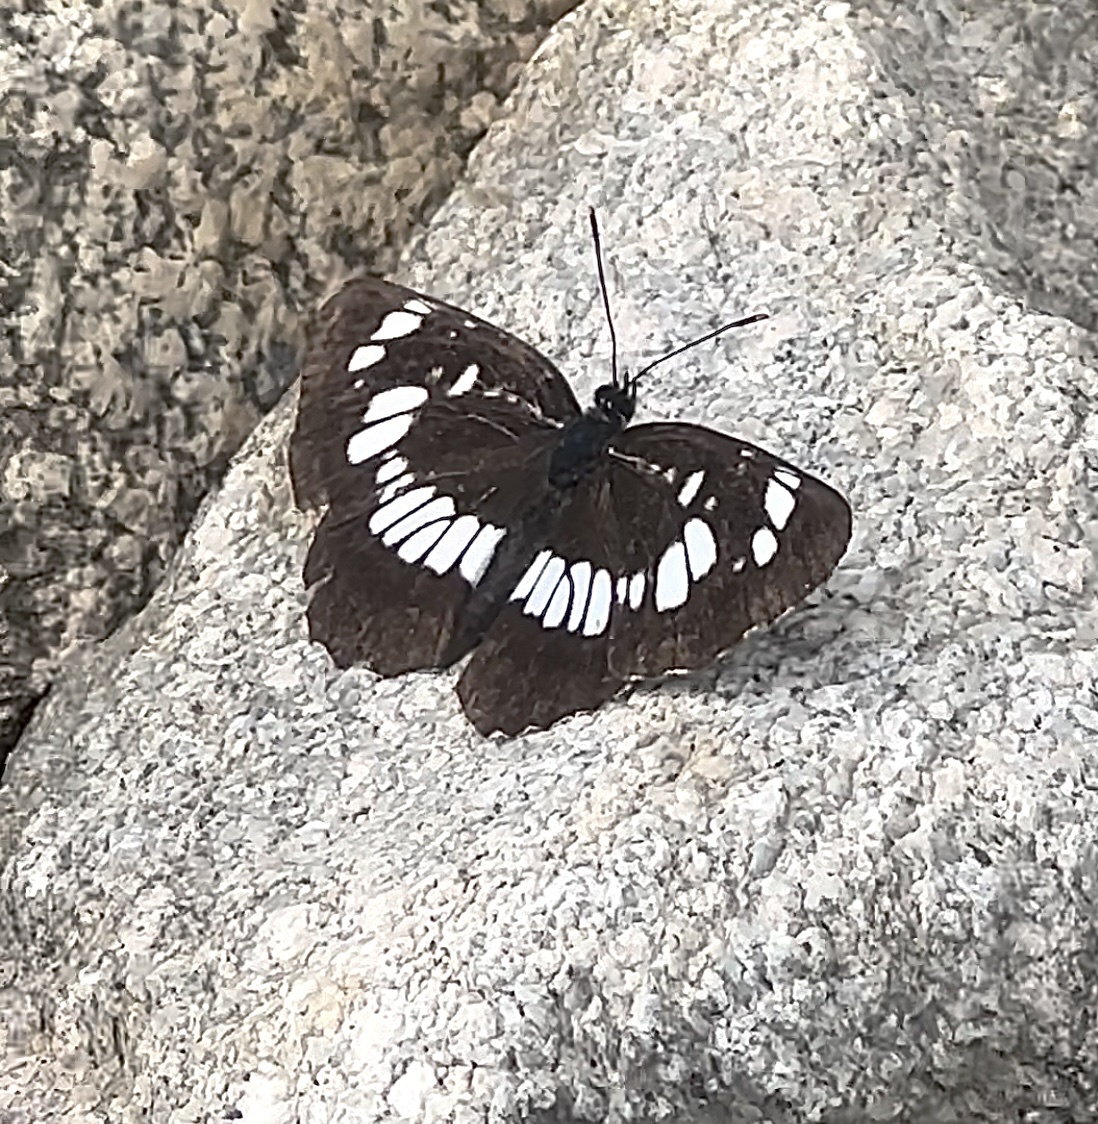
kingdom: Animalia
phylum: Arthropoda
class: Insecta
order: Lepidoptera
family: Nymphalidae
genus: Neptis
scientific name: Neptis rivularis
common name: Hungarian glider
